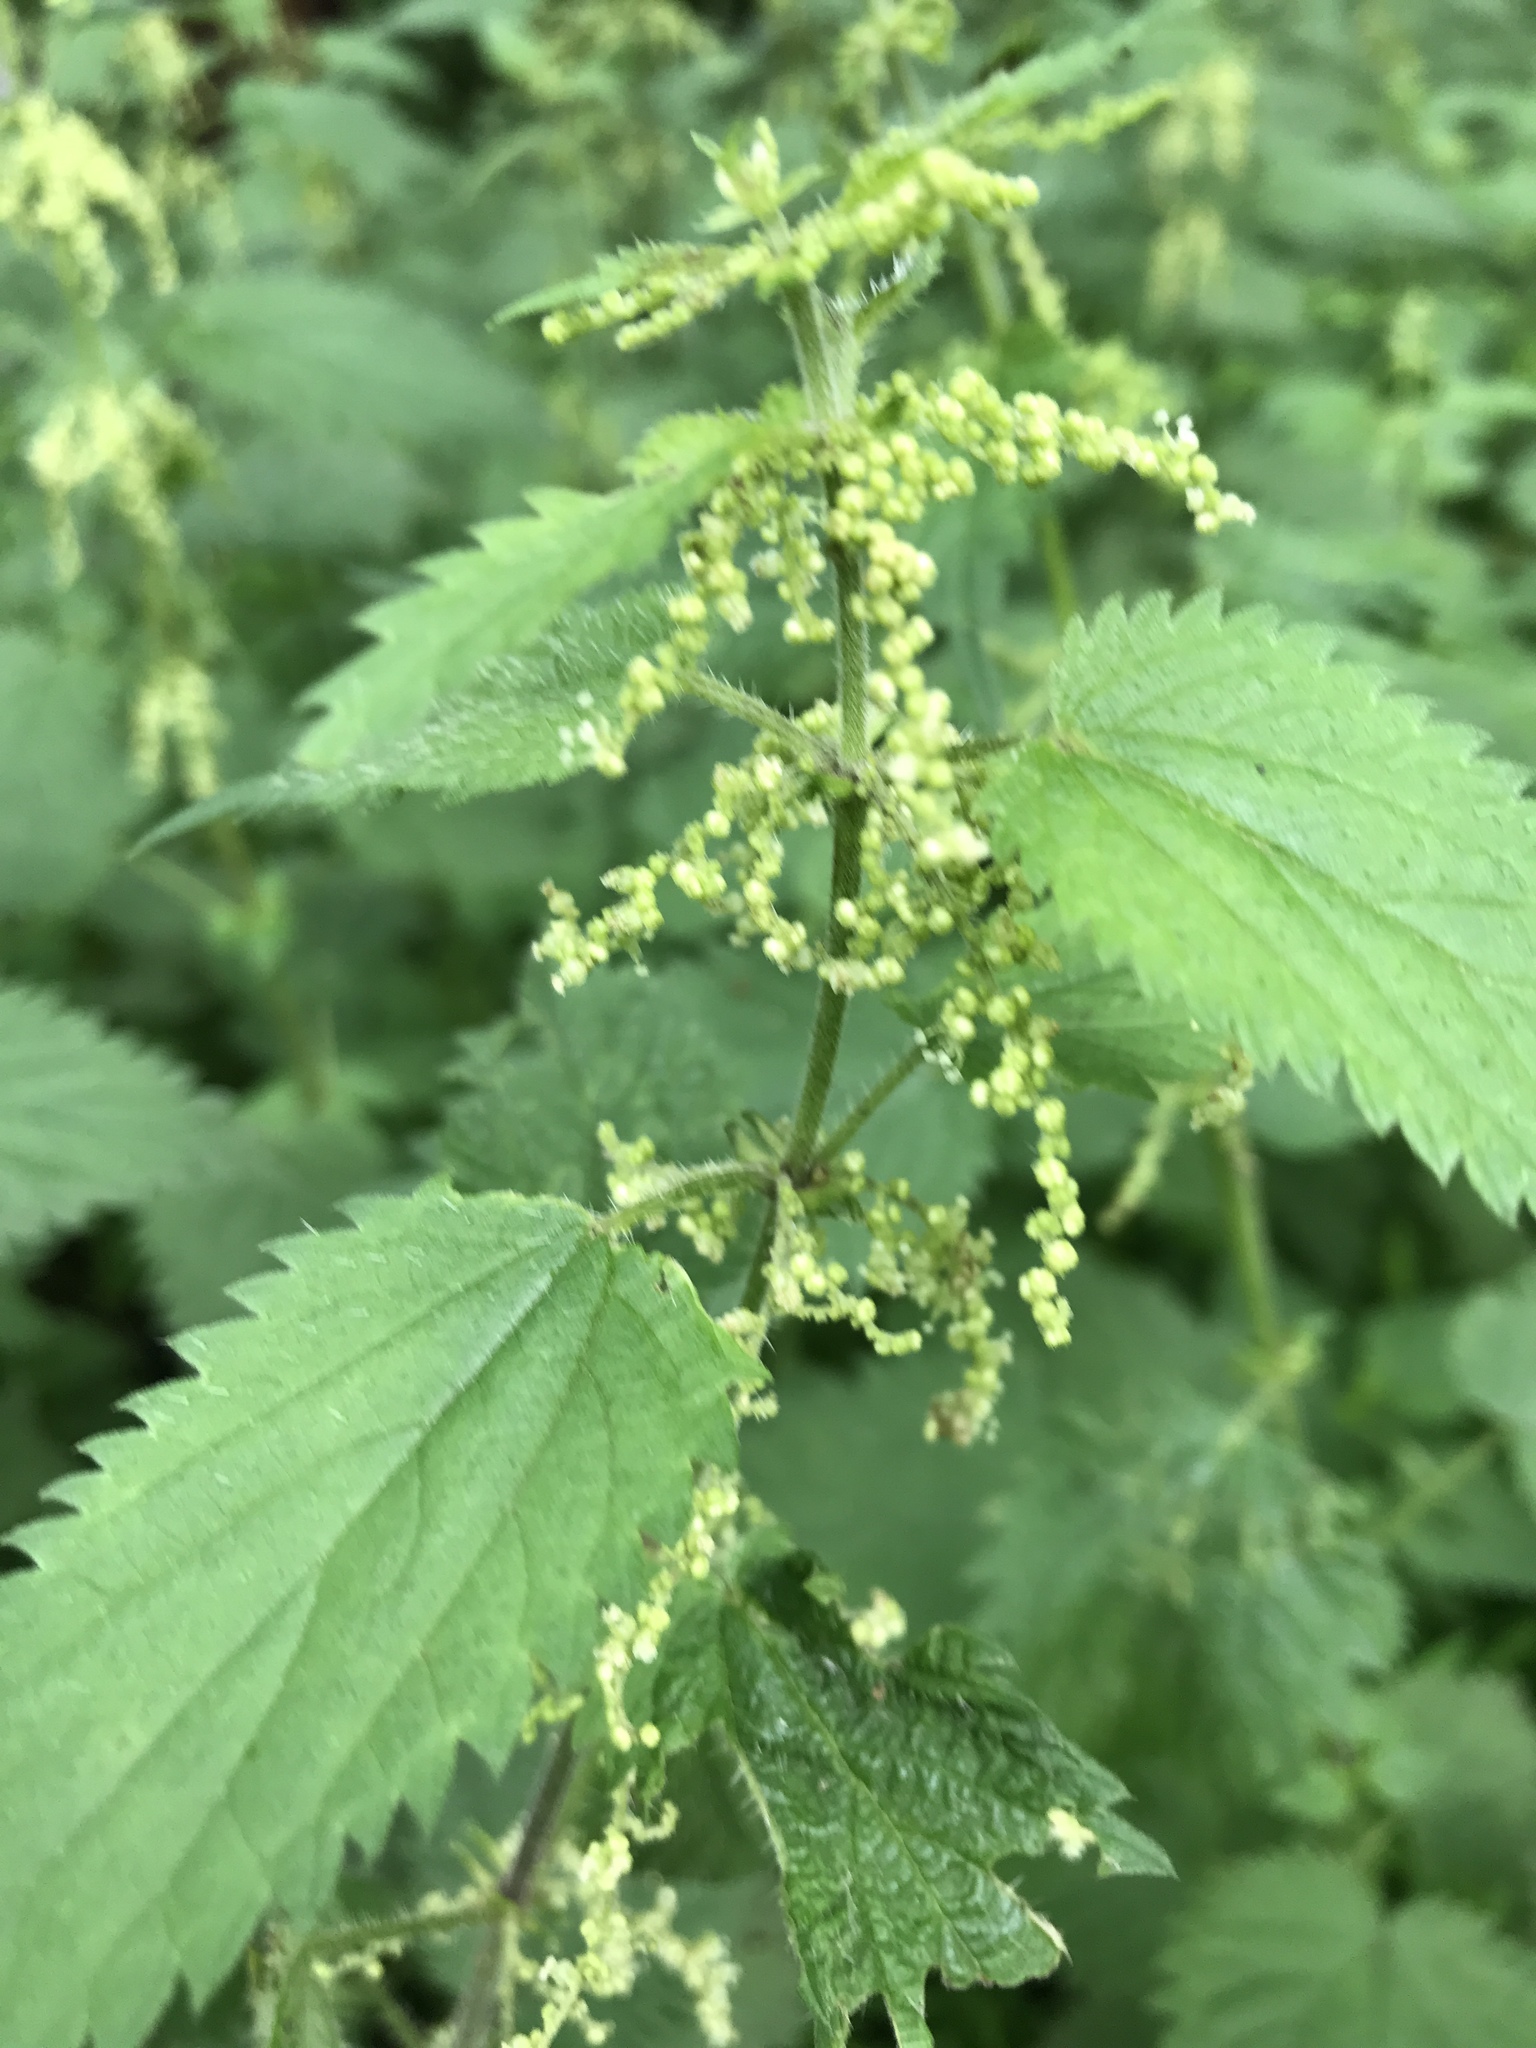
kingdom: Plantae
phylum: Tracheophyta
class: Magnoliopsida
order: Rosales
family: Urticaceae
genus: Urtica
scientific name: Urtica dioica
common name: Common nettle
